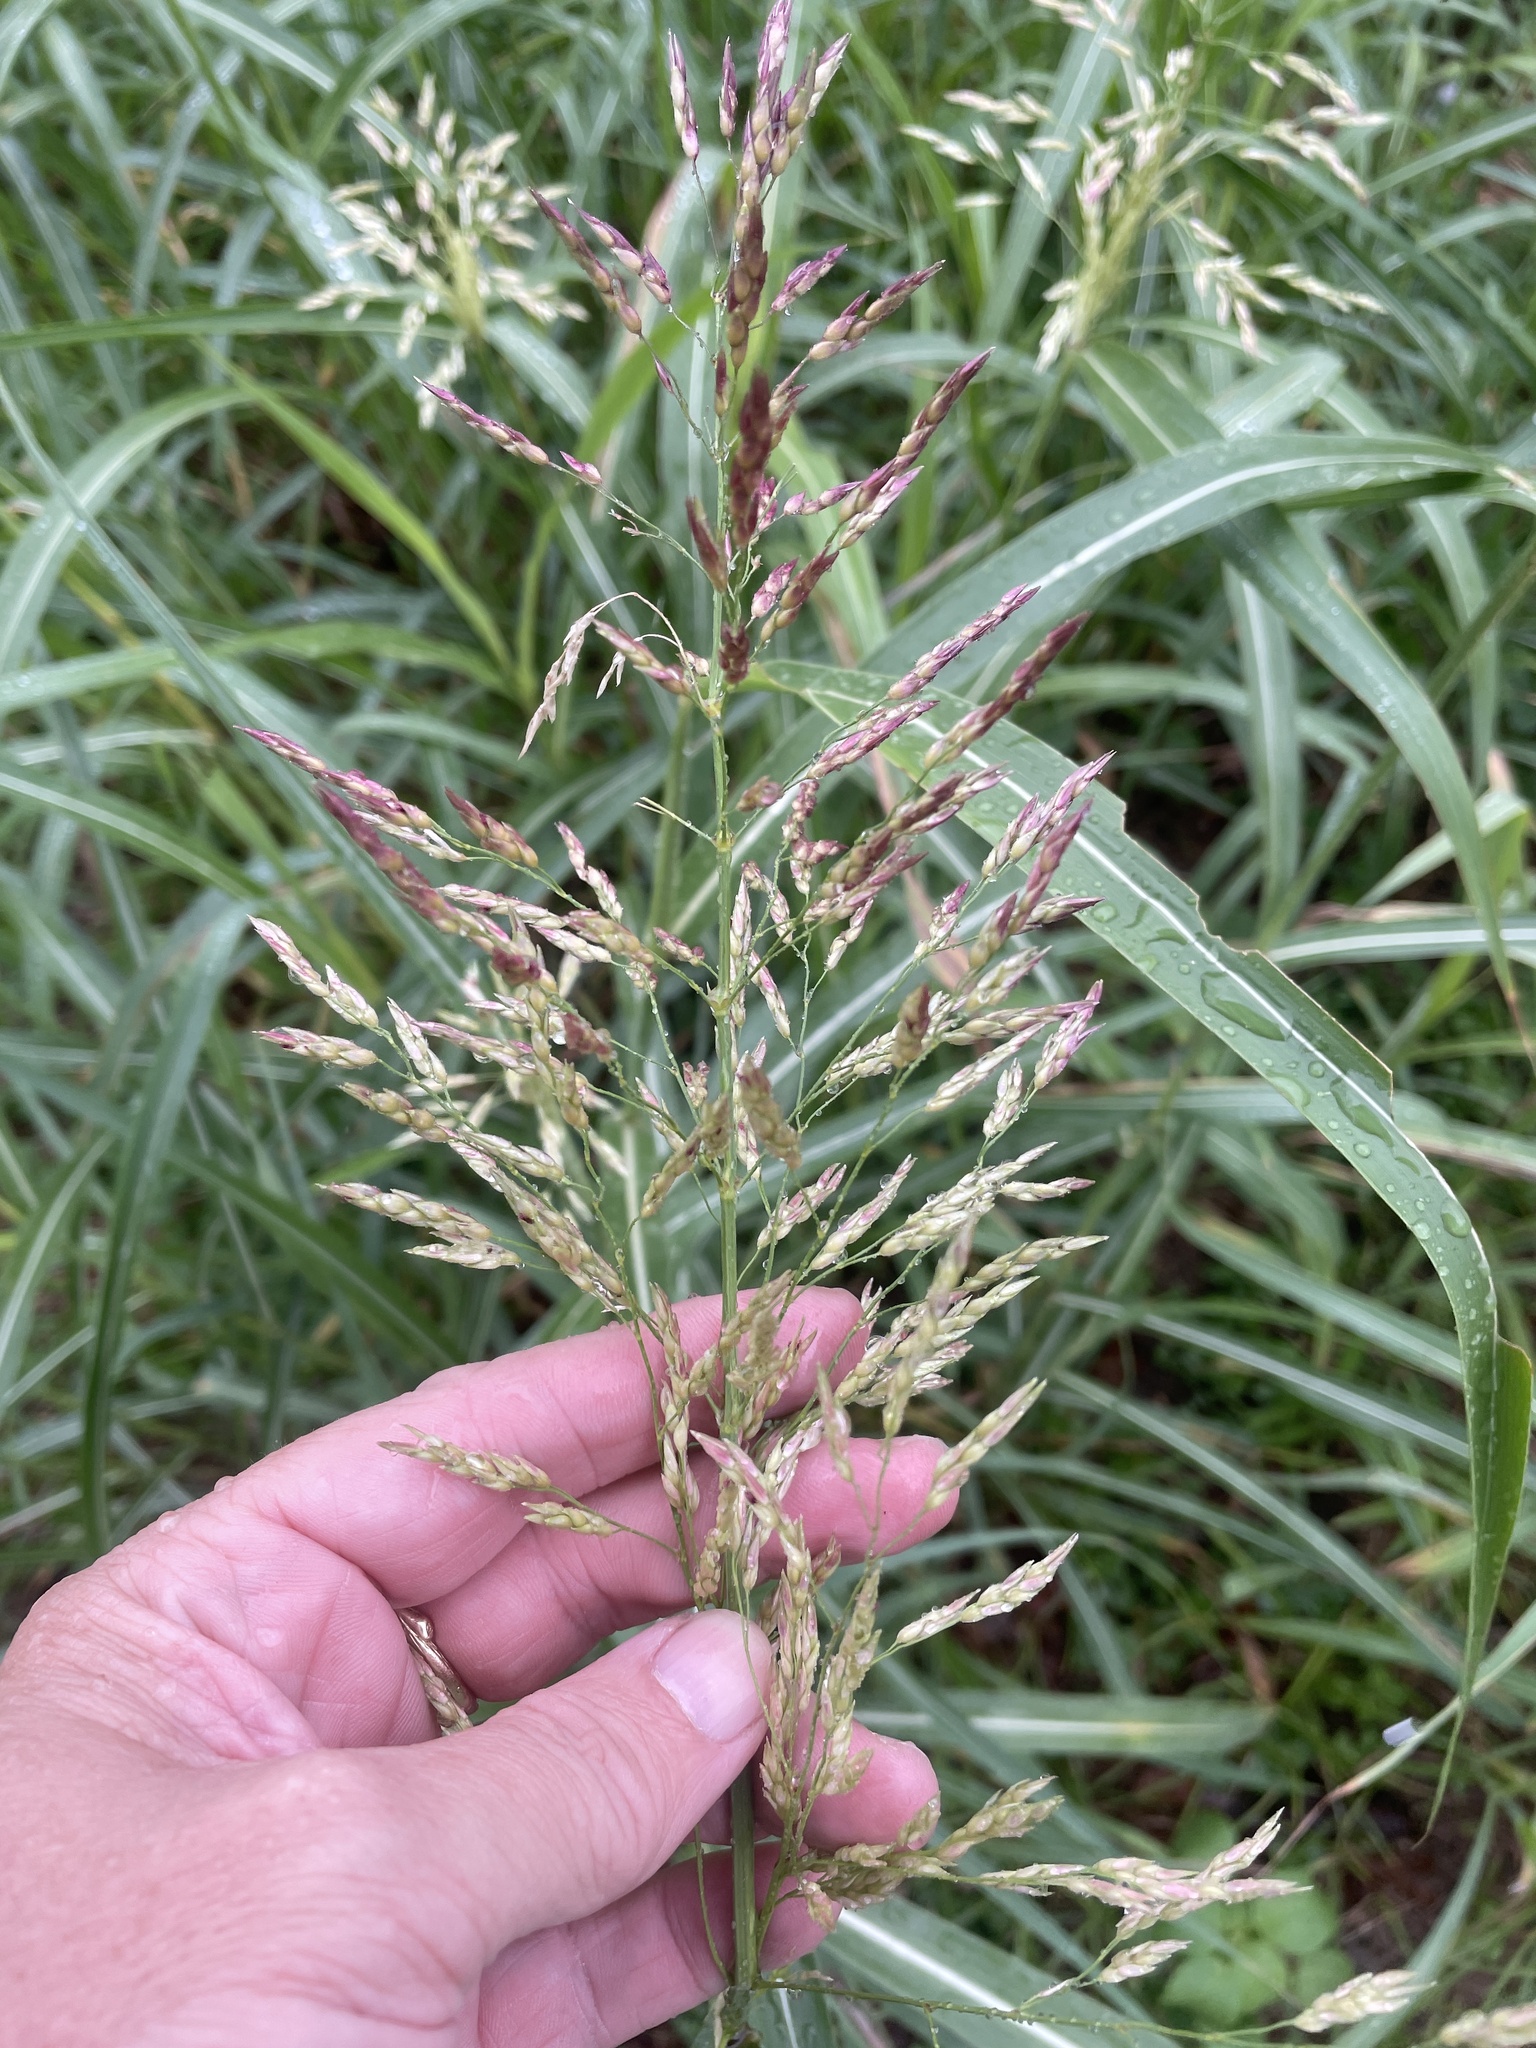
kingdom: Plantae
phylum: Tracheophyta
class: Liliopsida
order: Poales
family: Poaceae
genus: Sorghum
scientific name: Sorghum halepense
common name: Johnson-grass
